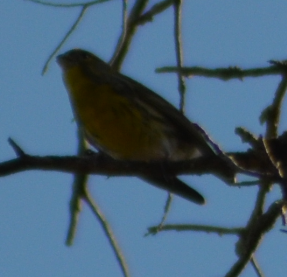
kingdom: Animalia
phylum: Chordata
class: Aves
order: Passeriformes
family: Fringillidae
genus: Serinus
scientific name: Serinus serinus
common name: European serin
